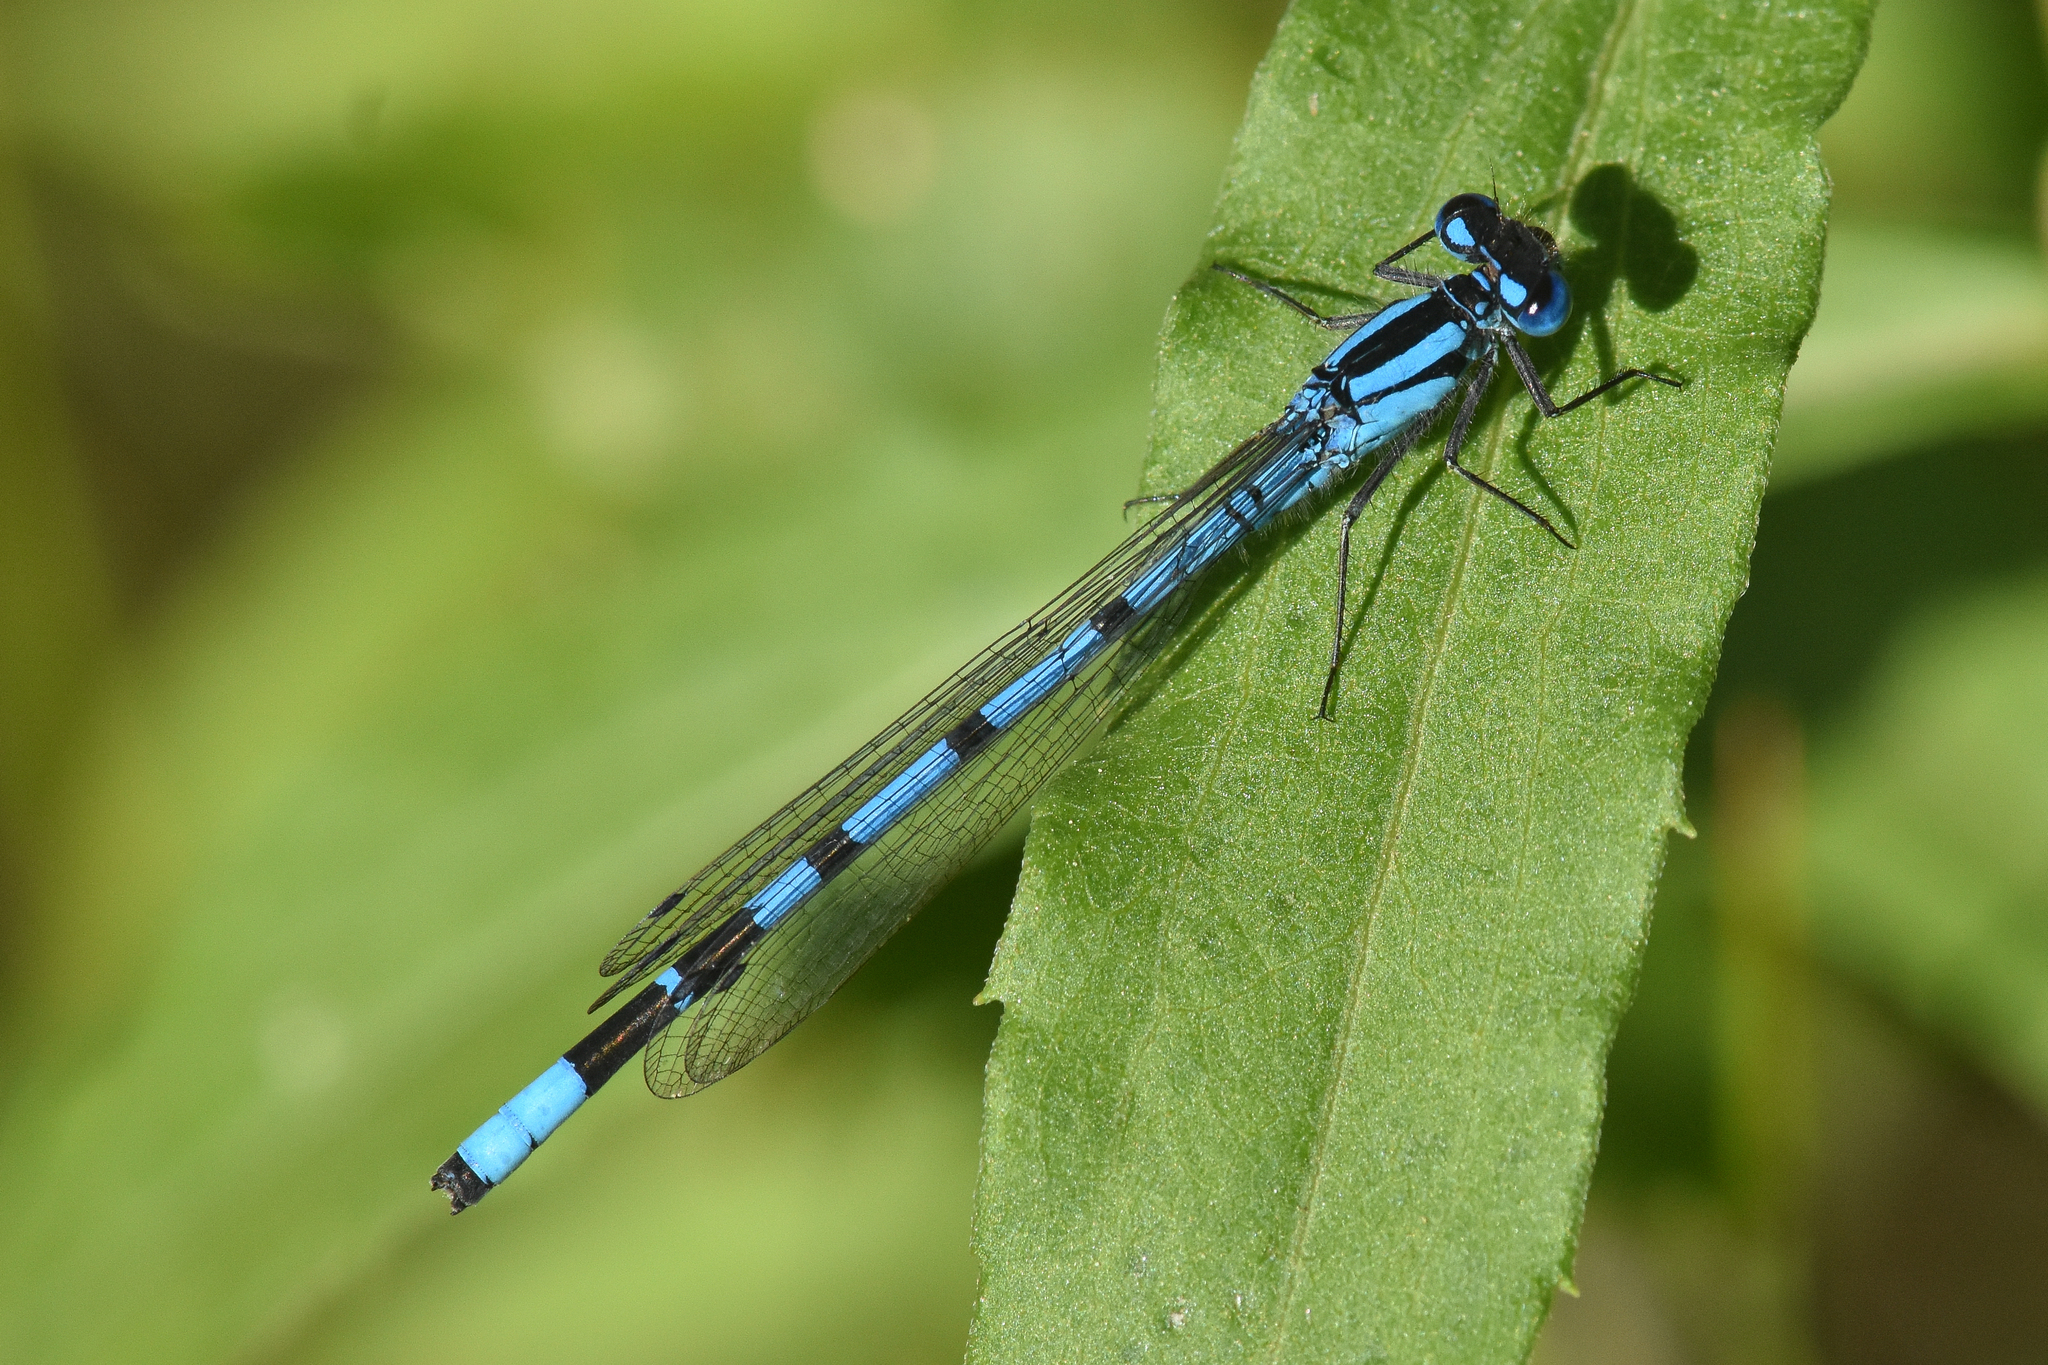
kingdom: Animalia
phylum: Arthropoda
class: Insecta
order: Odonata
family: Coenagrionidae
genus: Enallagma
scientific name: Enallagma ebrium
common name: Marsh bluet
